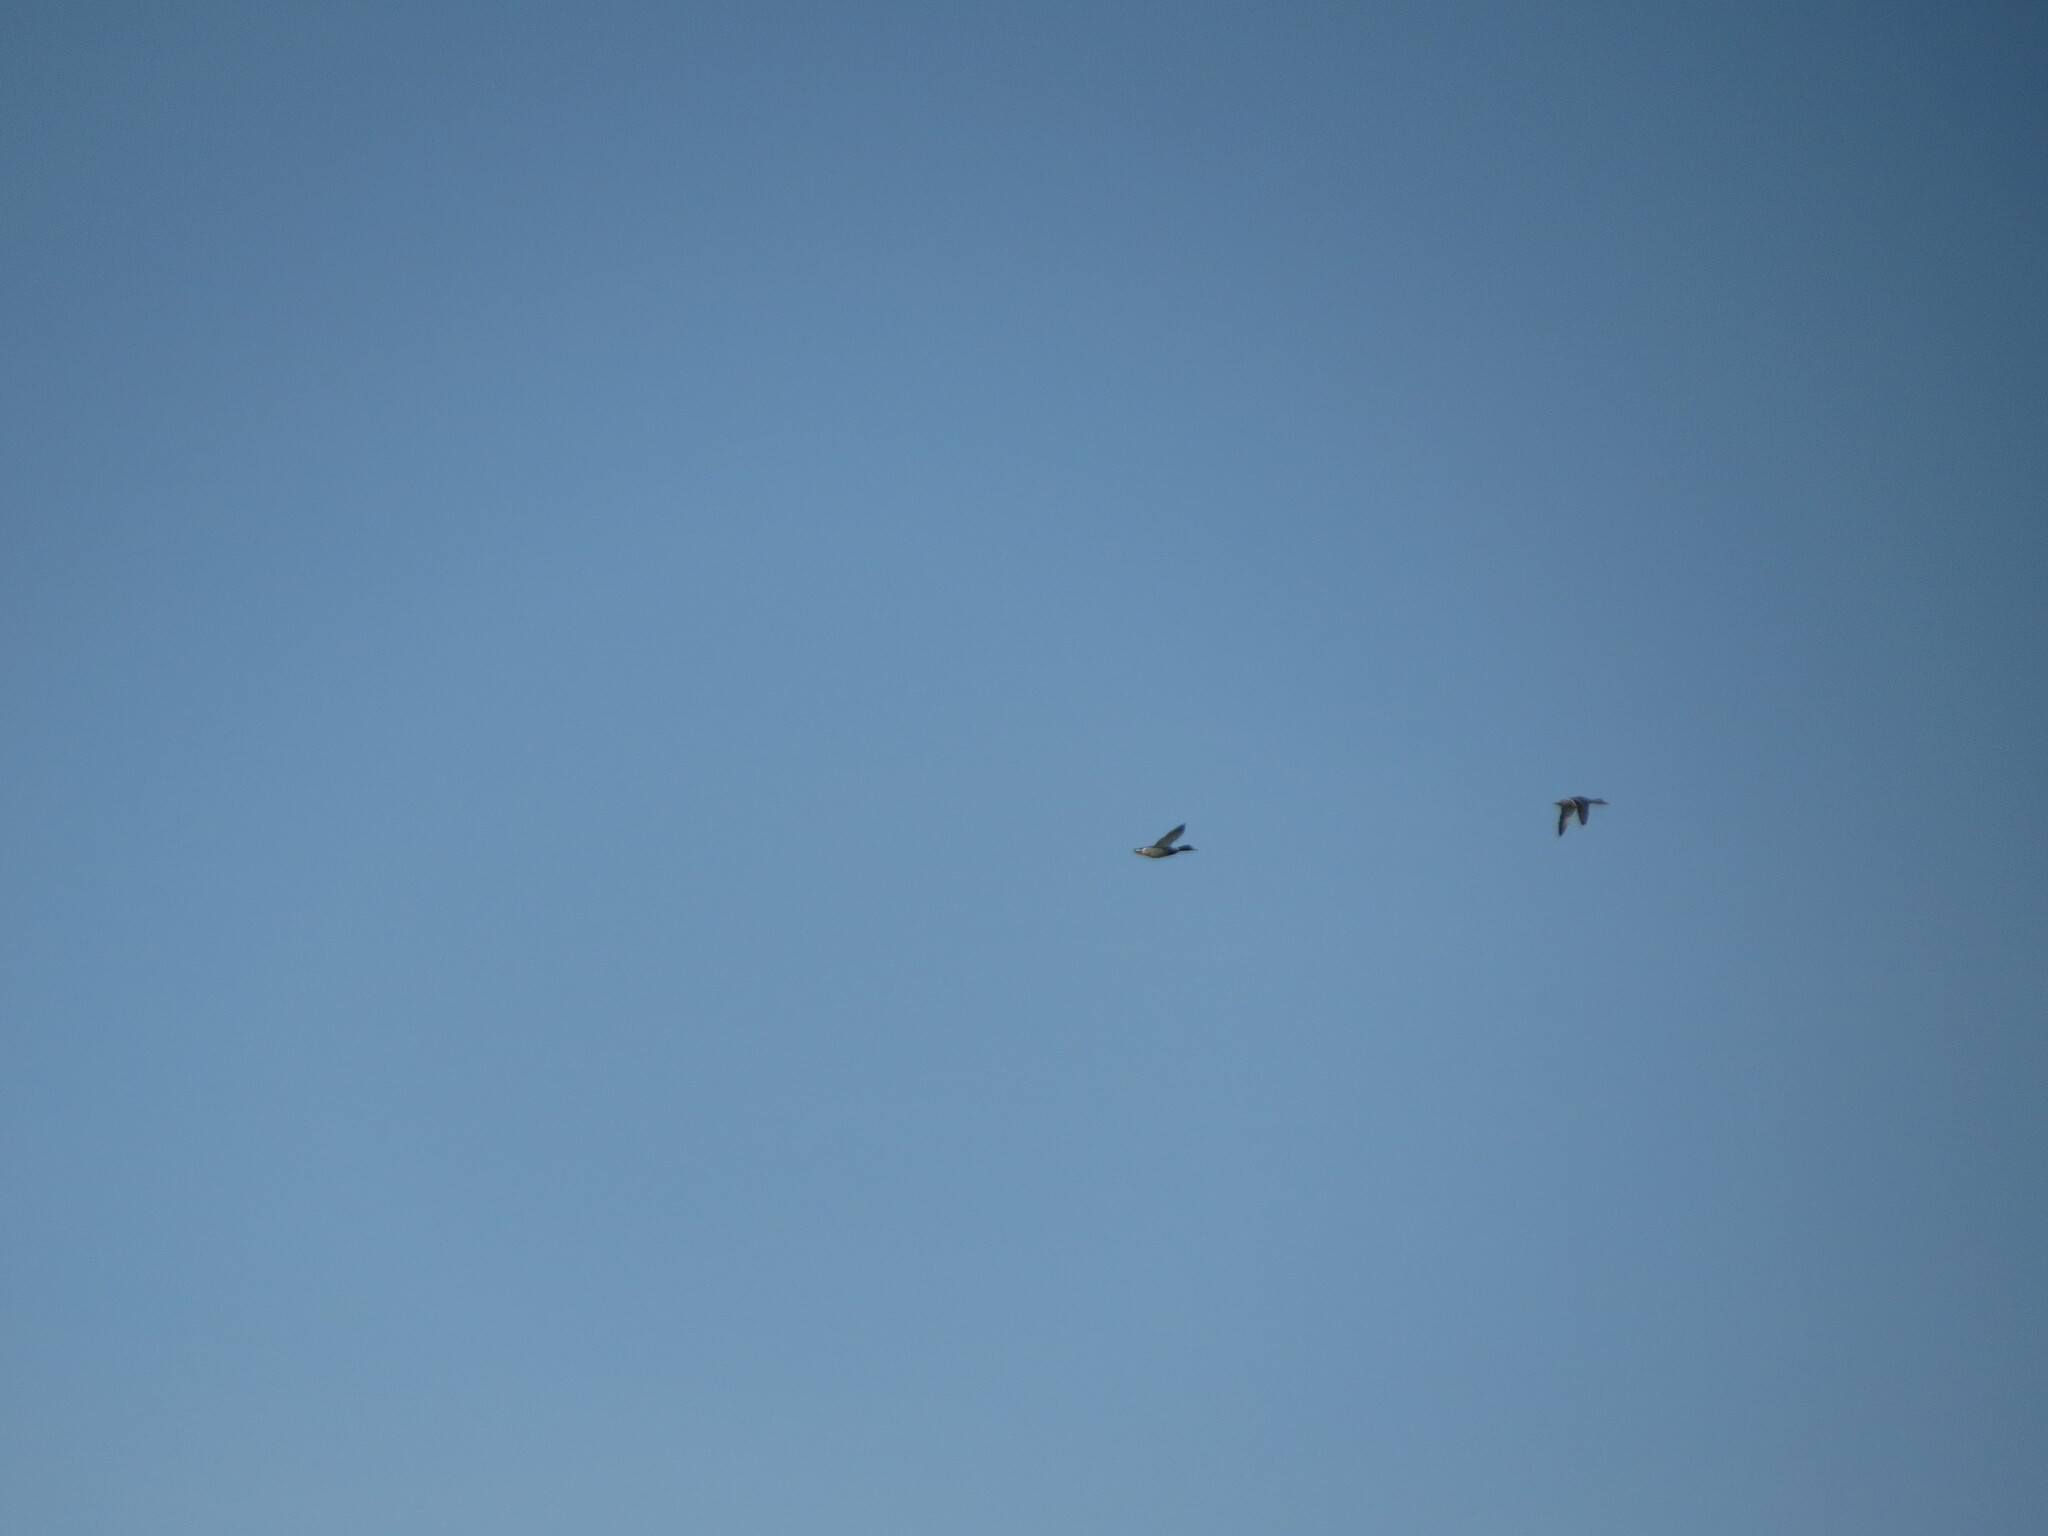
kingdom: Animalia
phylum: Chordata
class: Aves
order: Anseriformes
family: Anatidae
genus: Anas
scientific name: Anas platyrhynchos
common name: Mallard
